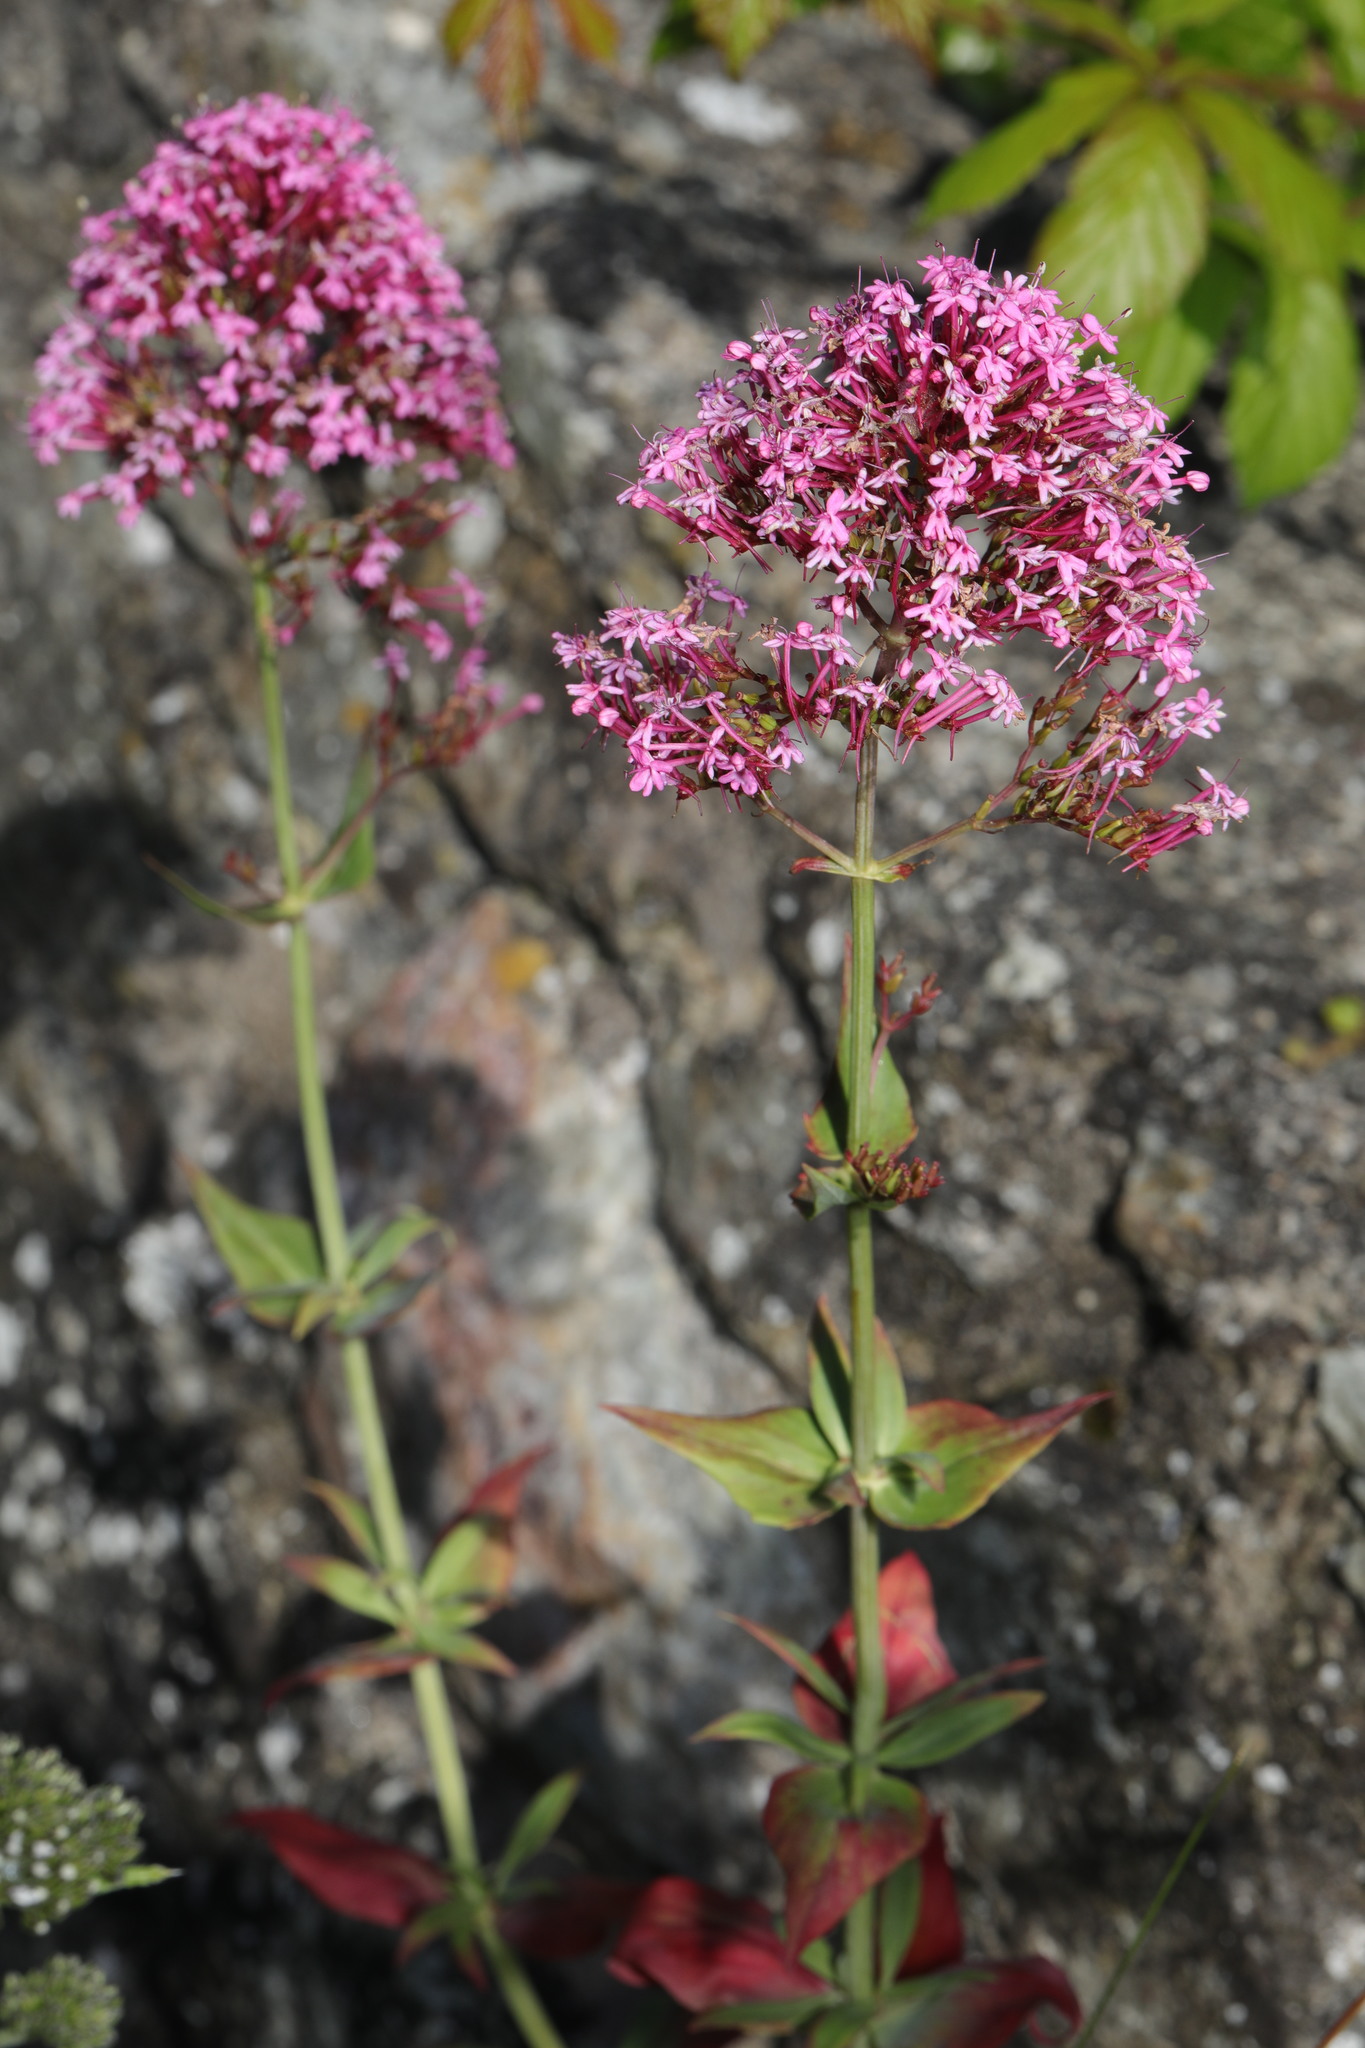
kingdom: Plantae
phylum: Tracheophyta
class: Magnoliopsida
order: Dipsacales
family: Caprifoliaceae
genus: Centranthus
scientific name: Centranthus ruber
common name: Red valerian
